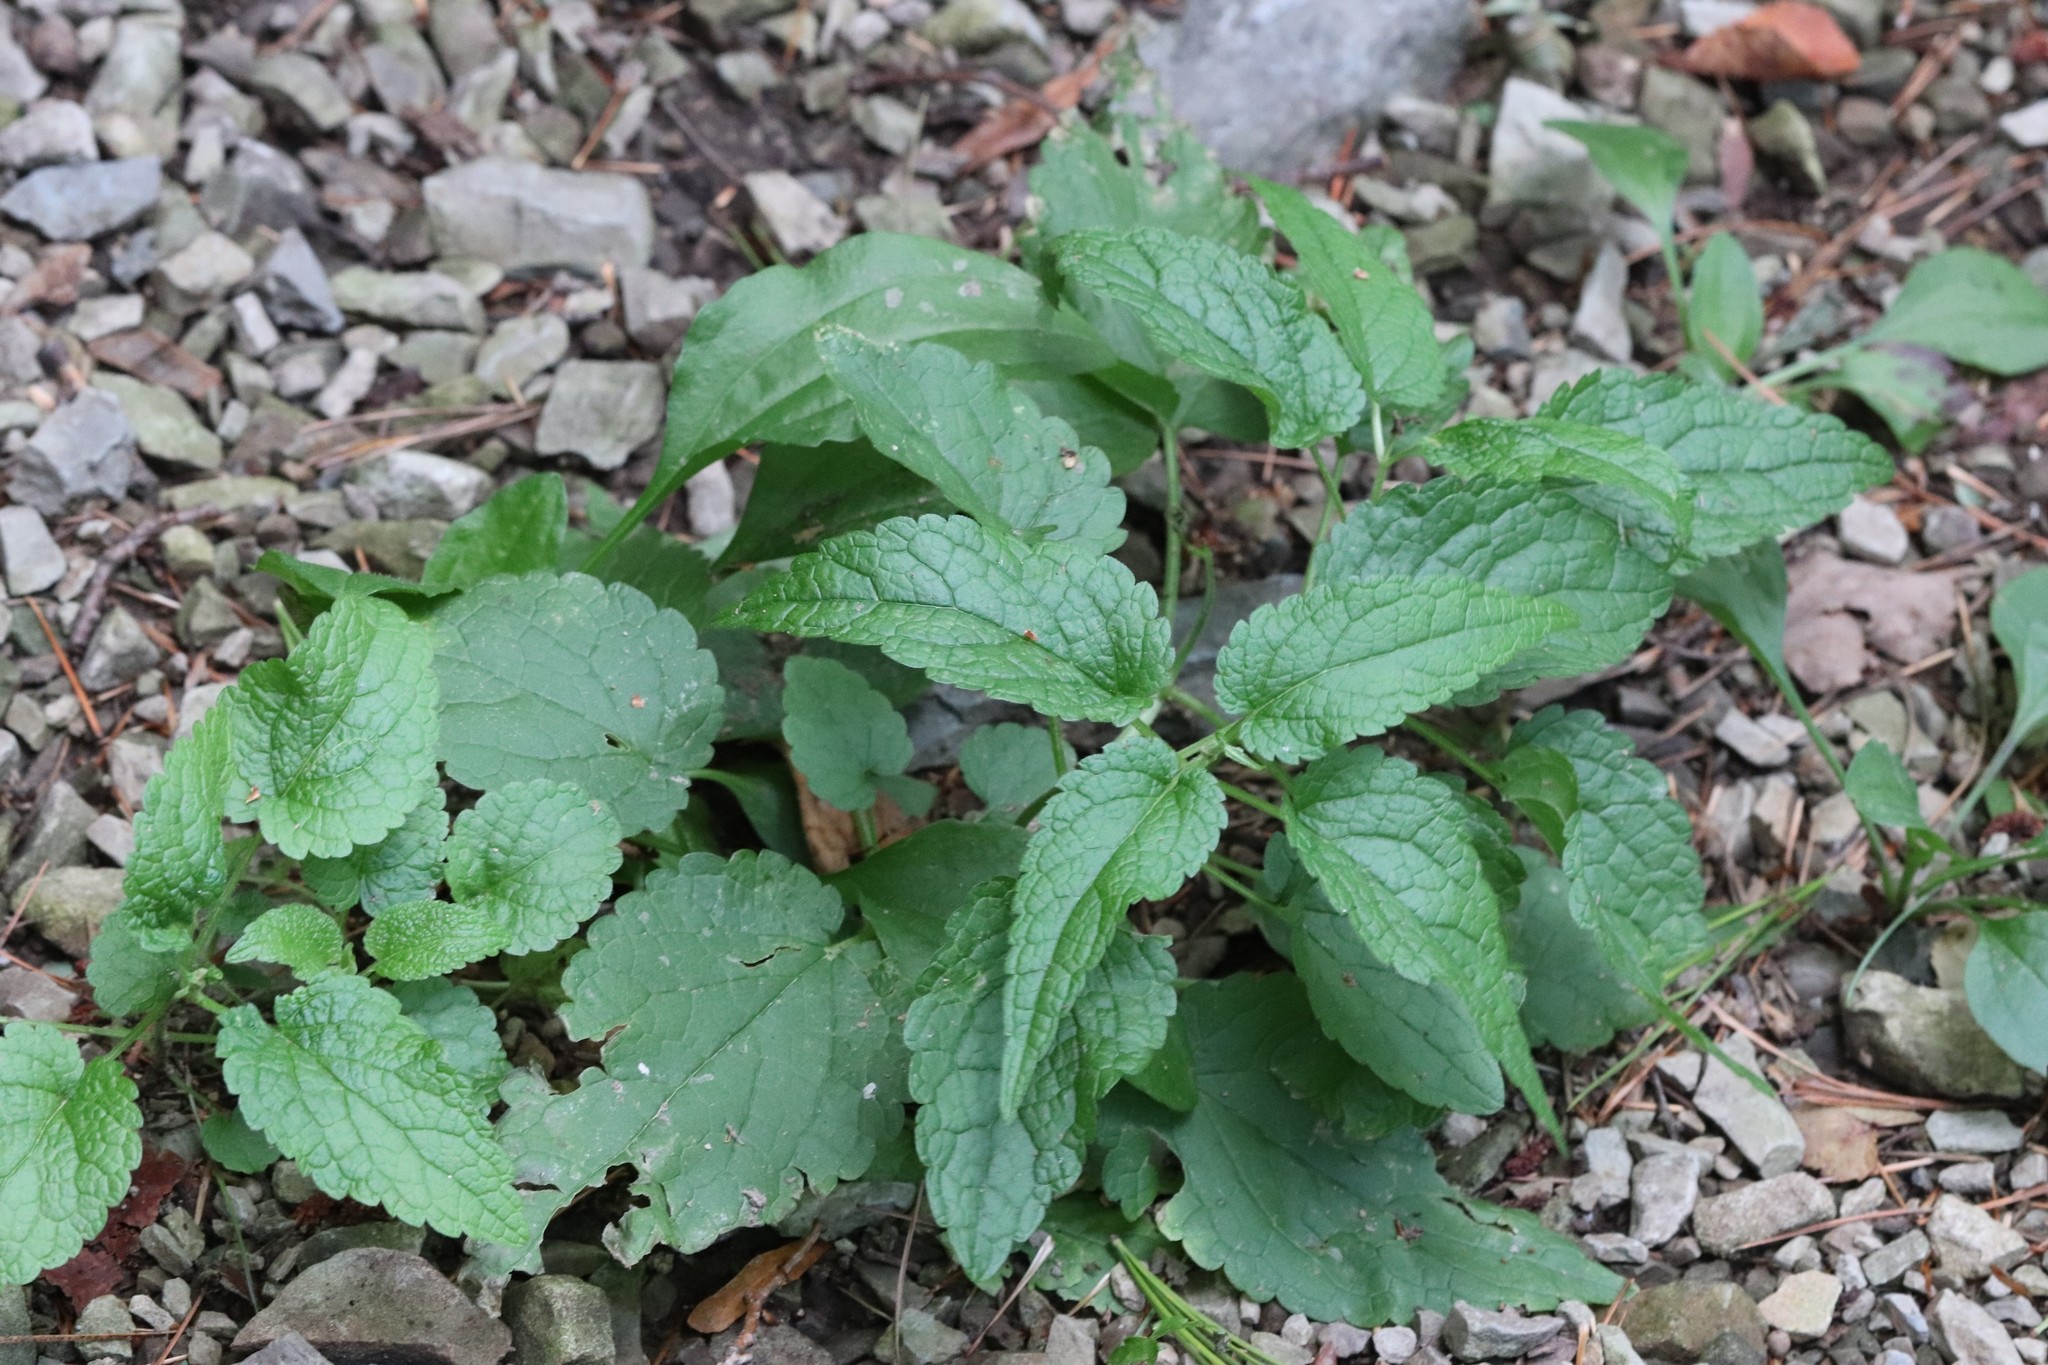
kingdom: Plantae
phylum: Tracheophyta
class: Magnoliopsida
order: Lamiales
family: Lamiaceae
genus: Lamium
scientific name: Lamium album
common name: White dead-nettle
